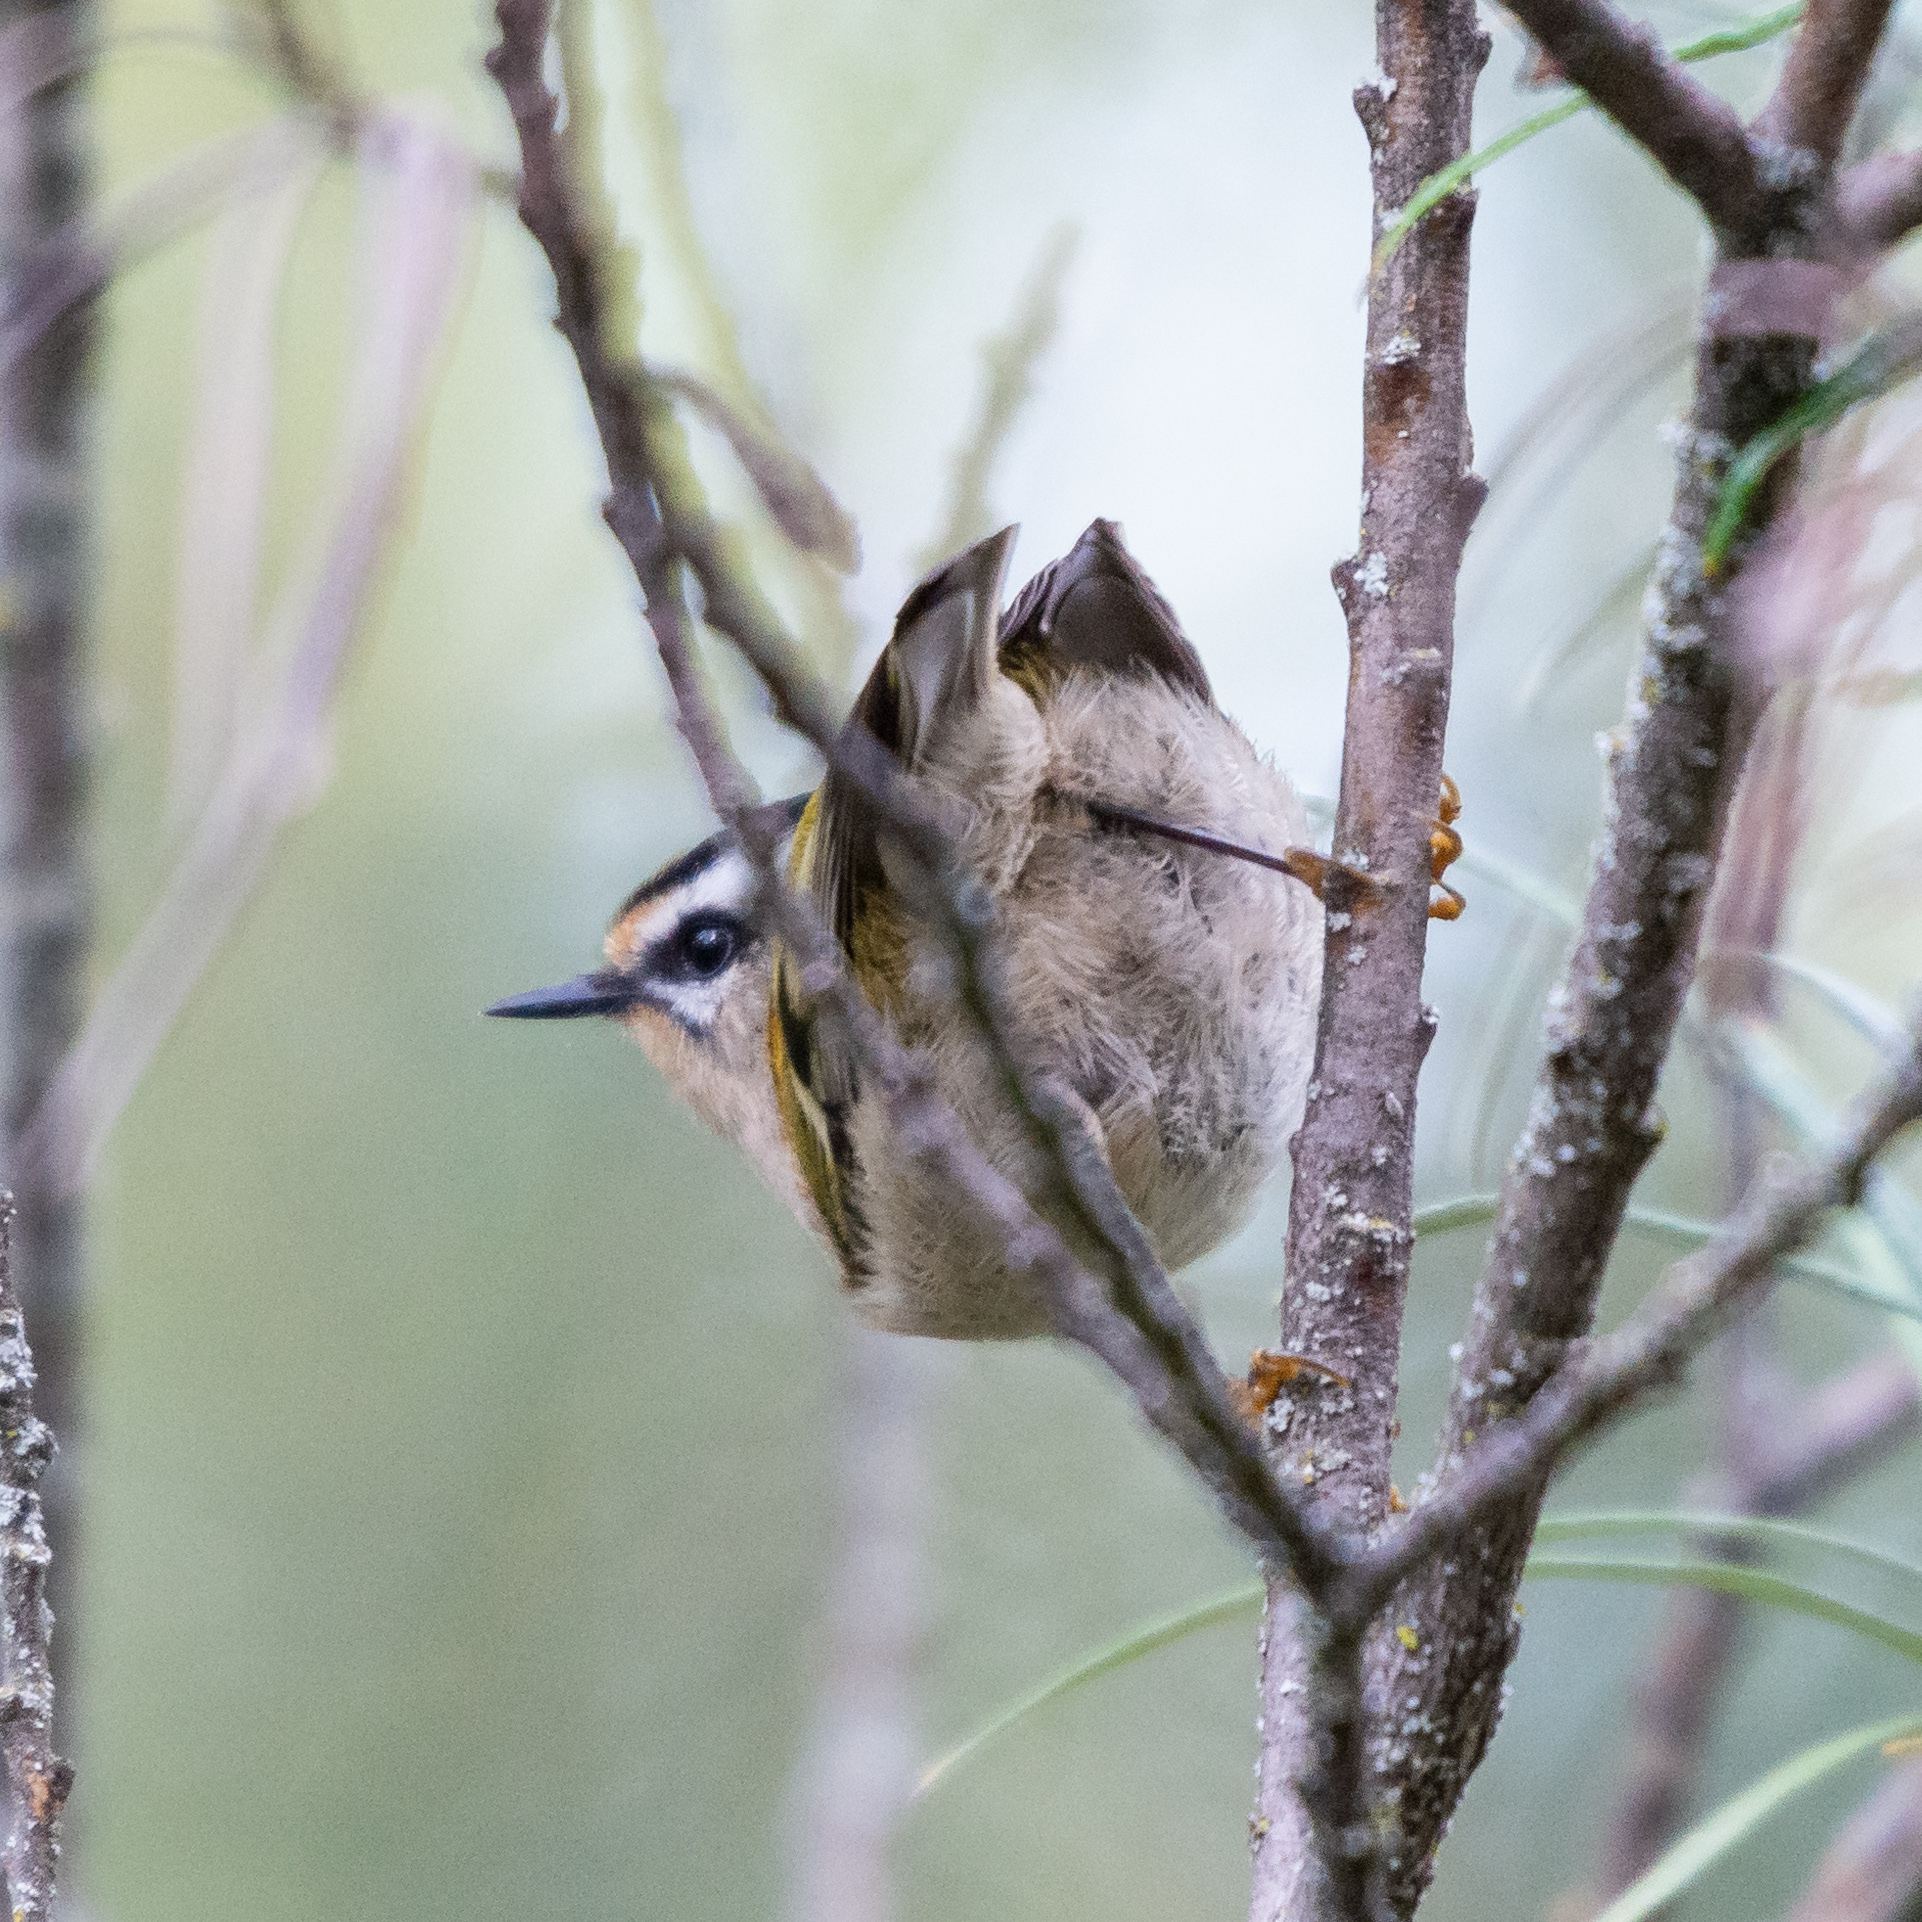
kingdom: Animalia
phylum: Chordata
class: Aves
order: Passeriformes
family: Regulidae
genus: Regulus
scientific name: Regulus ignicapilla
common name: Firecrest
